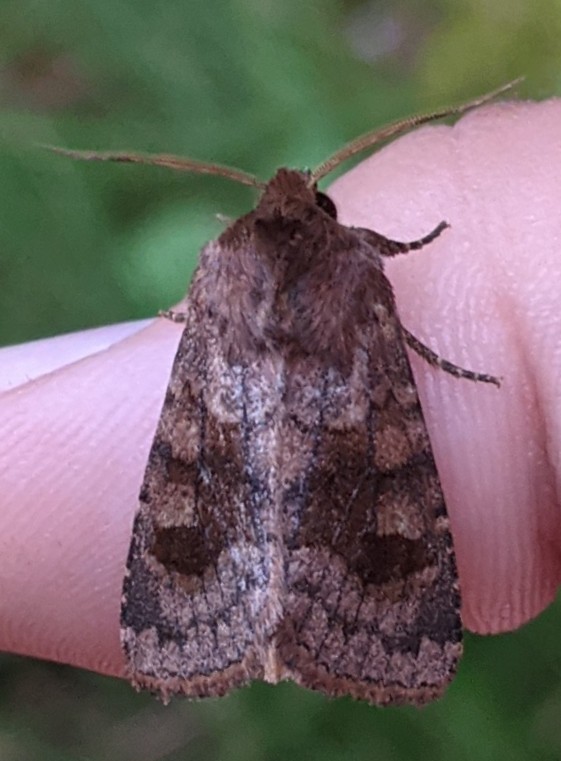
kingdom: Animalia
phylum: Arthropoda
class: Insecta
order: Lepidoptera
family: Noctuidae
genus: Nephelodes
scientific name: Nephelodes minians
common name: Bronzed cutworm
